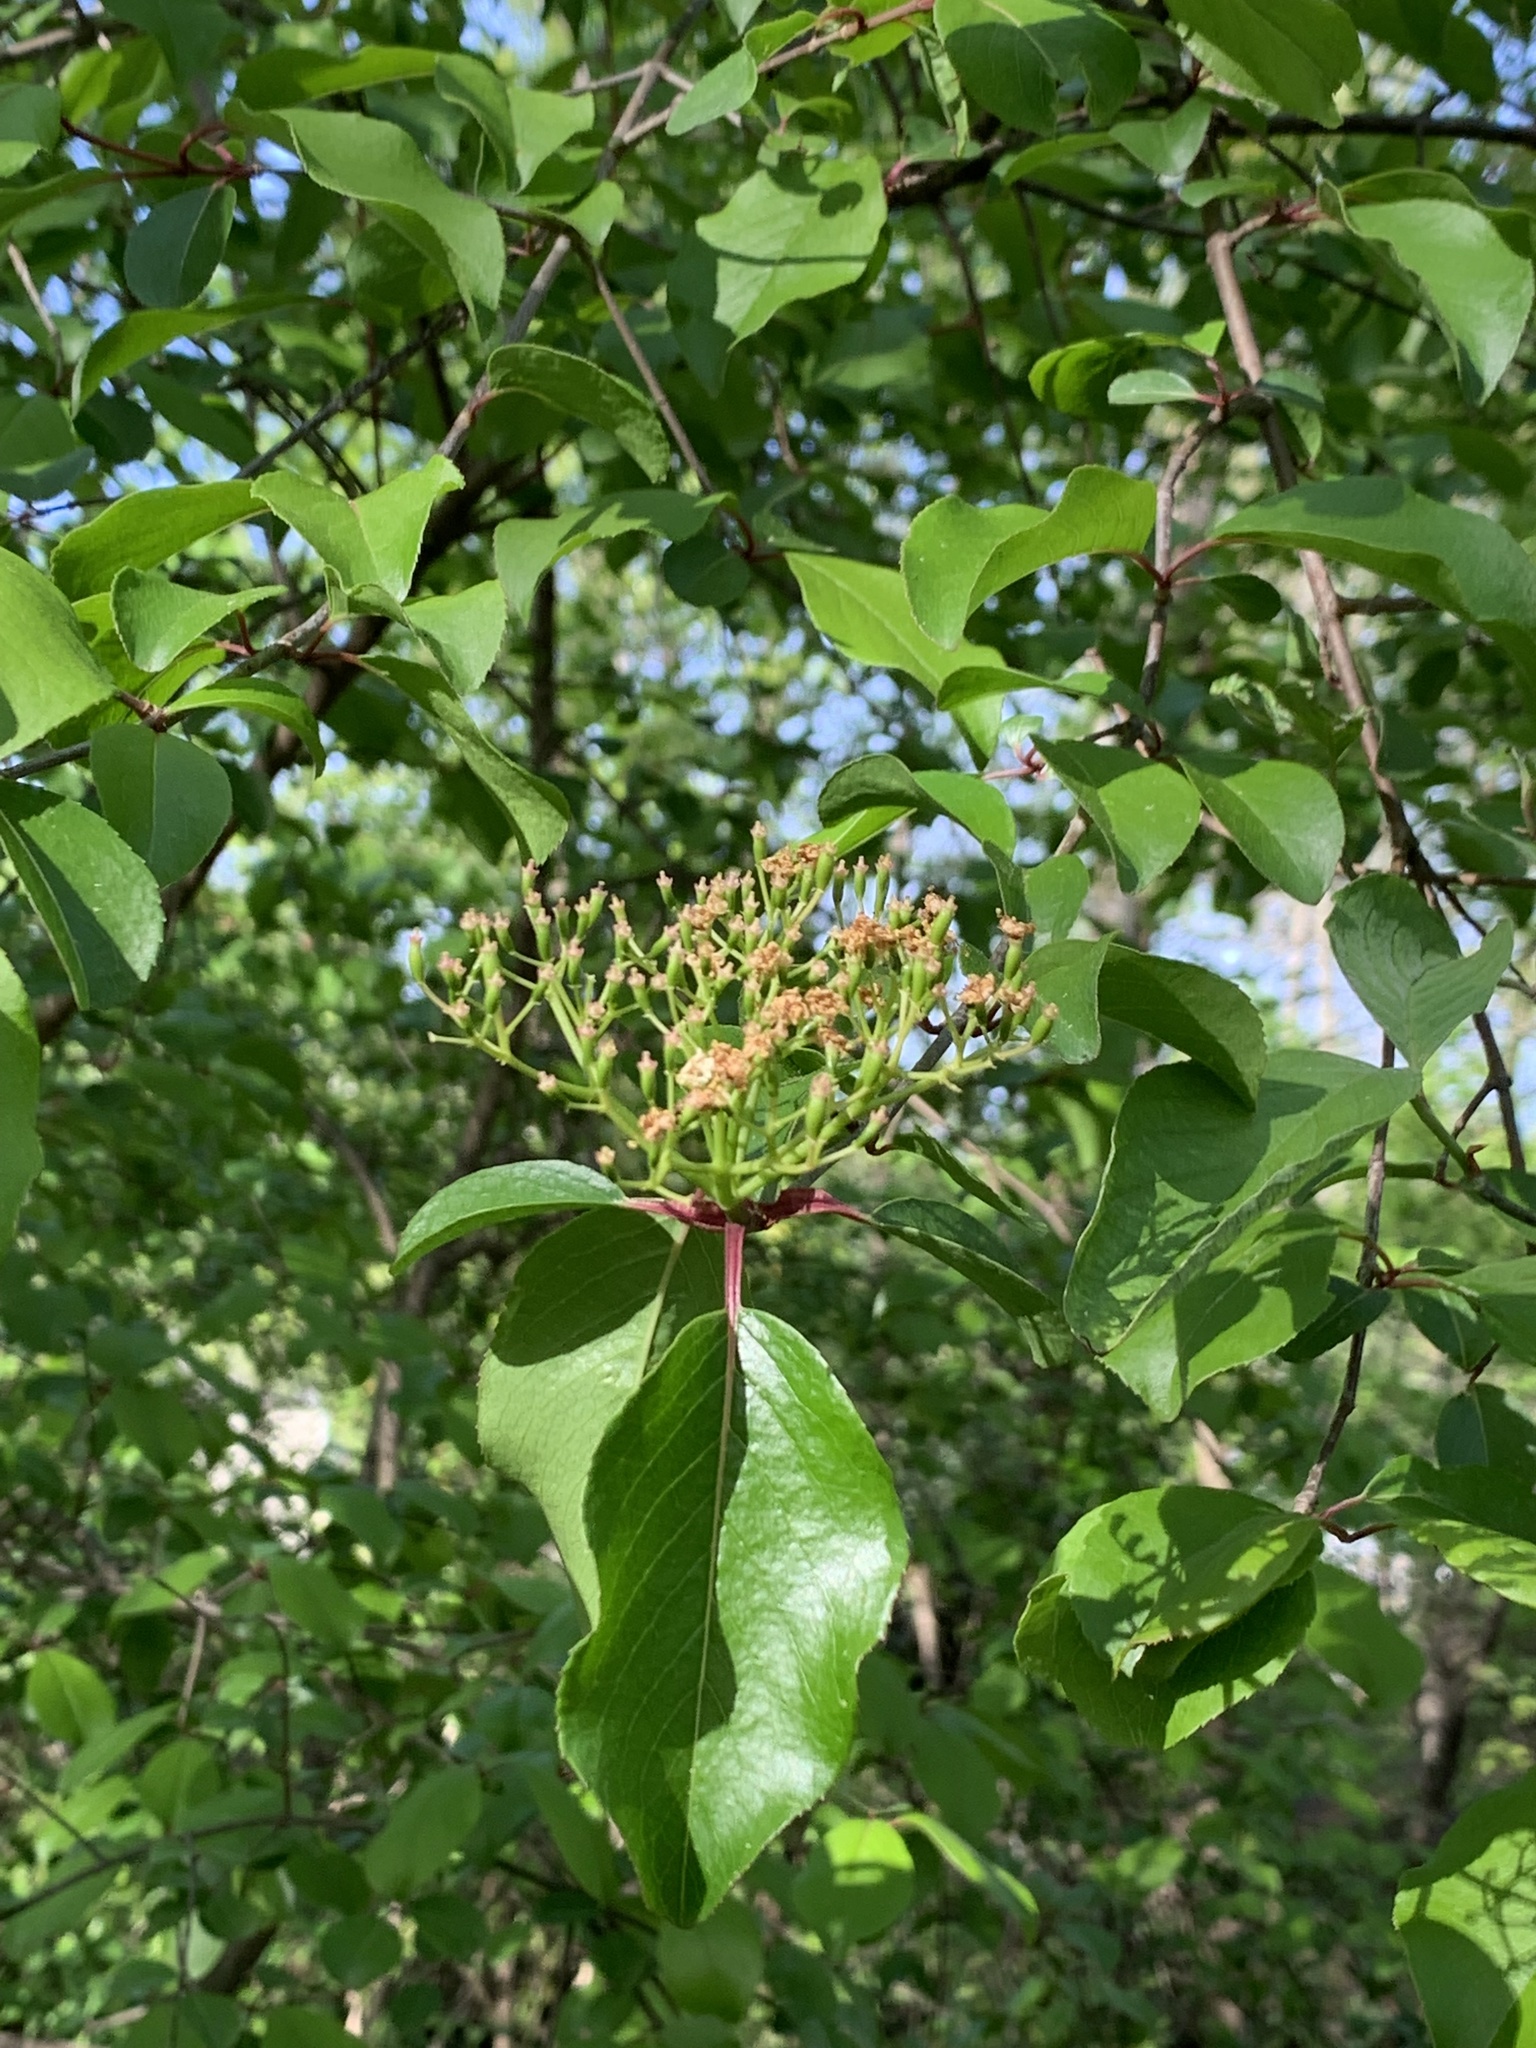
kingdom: Plantae
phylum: Tracheophyta
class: Magnoliopsida
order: Dipsacales
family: Viburnaceae
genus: Viburnum
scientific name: Viburnum prunifolium
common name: Black haw
